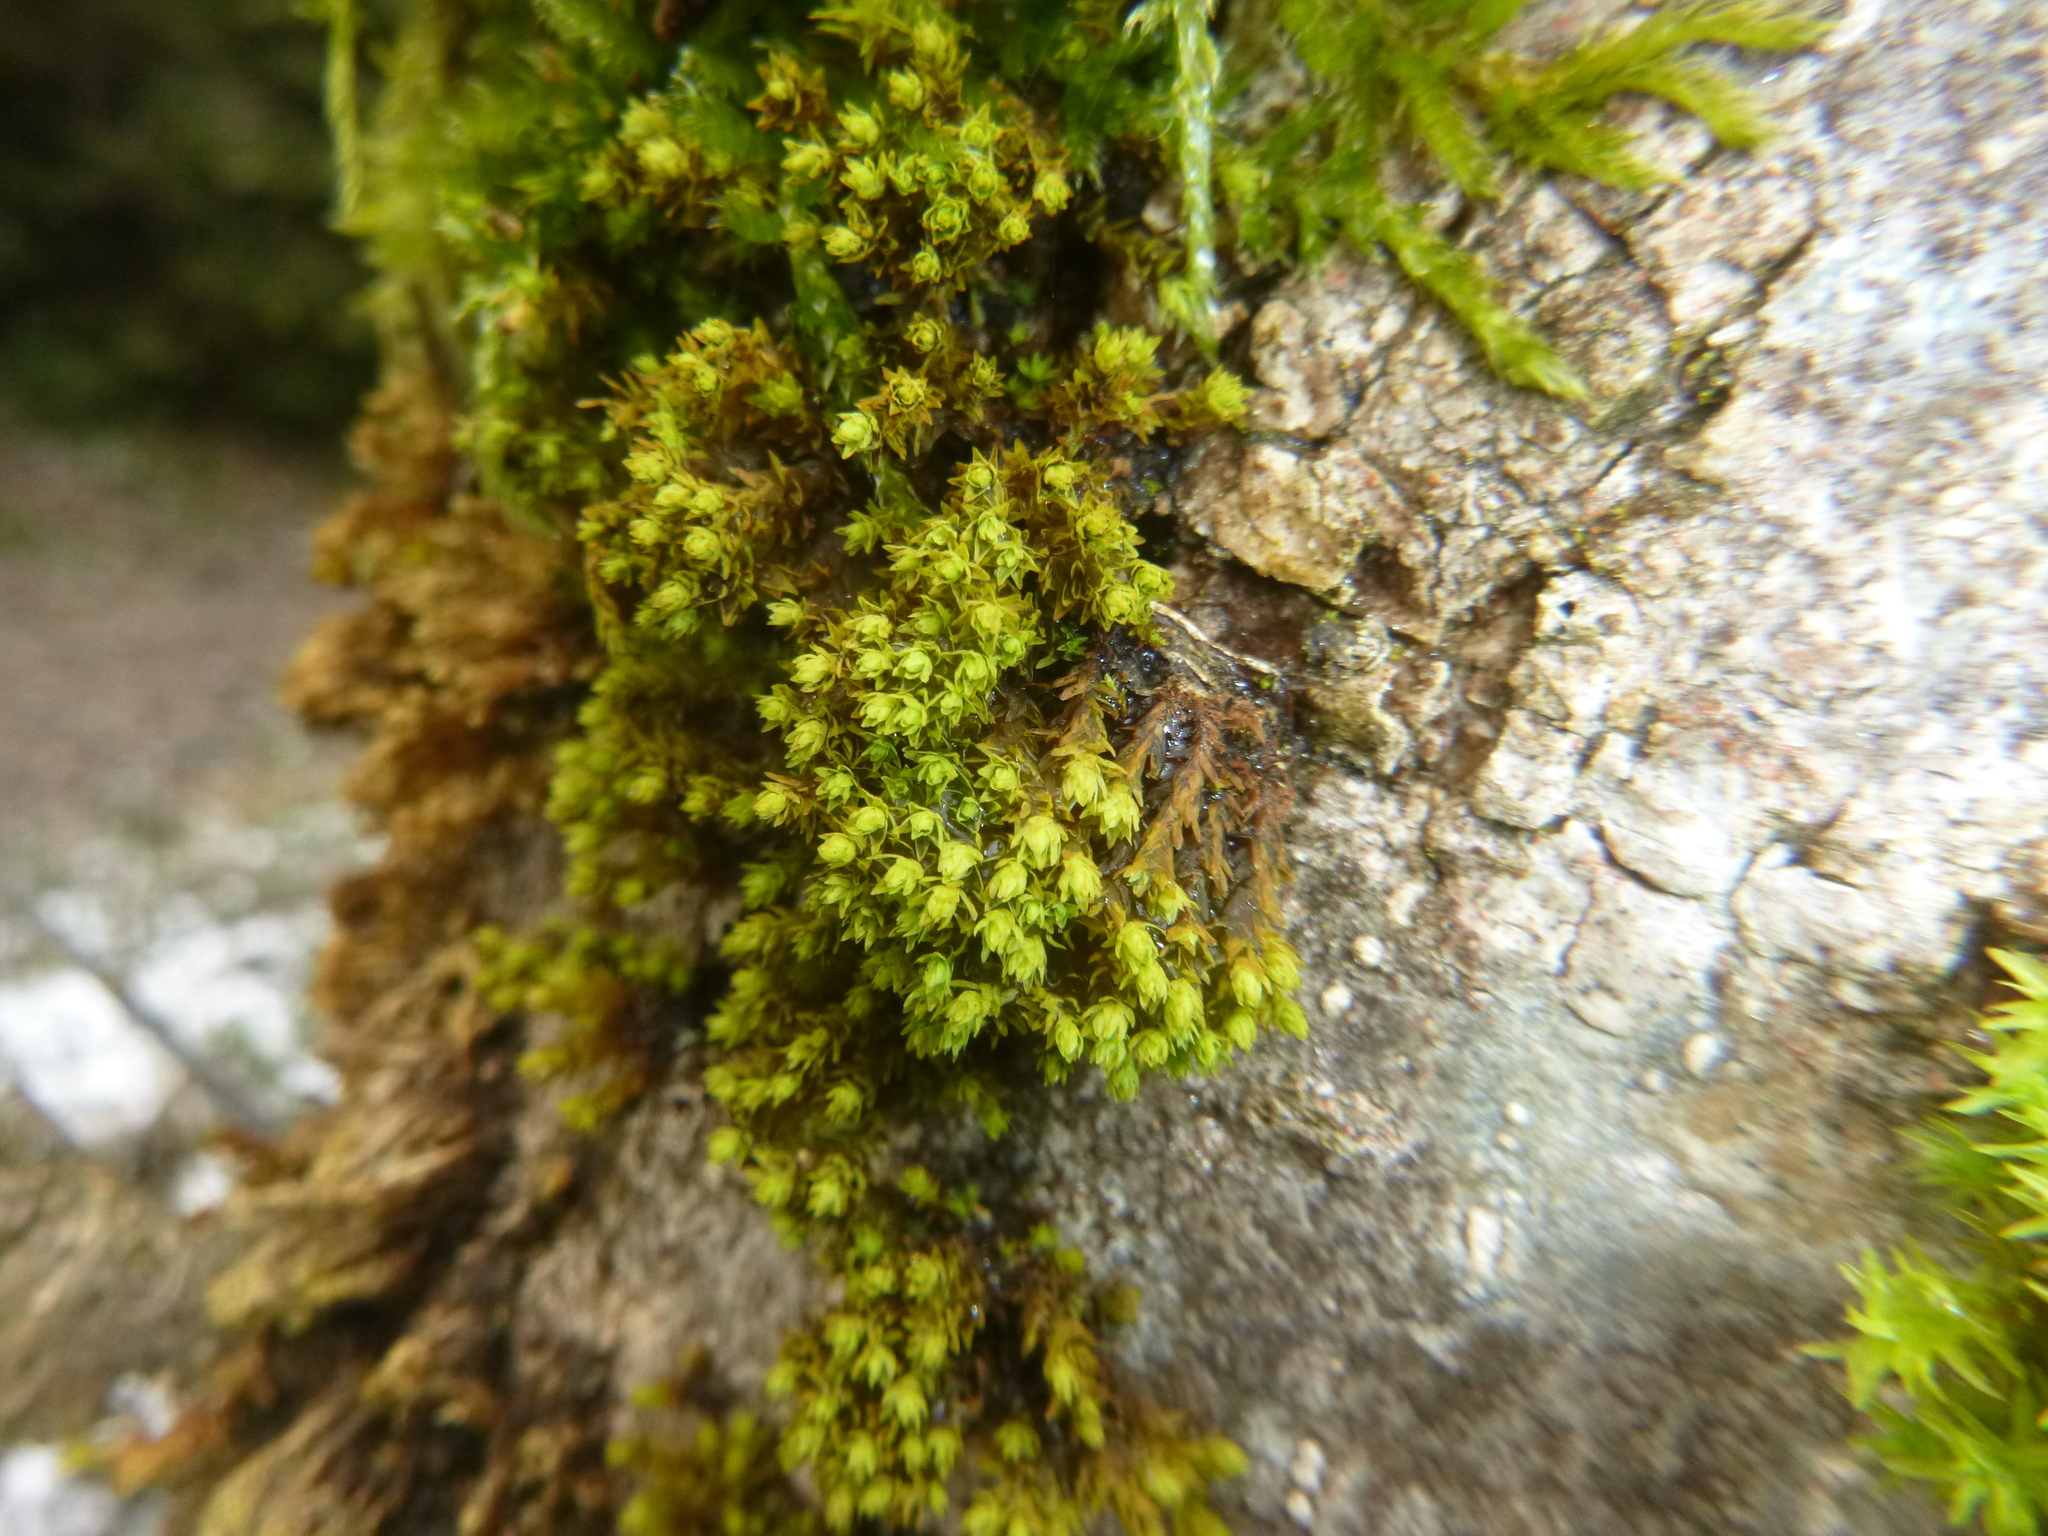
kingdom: Plantae
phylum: Bryophyta
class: Bryopsida
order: Orthotrichales
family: Orthotrichaceae
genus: Nyholmiella
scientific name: Nyholmiella obtusifolia
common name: Blunt-leaved bristle-moss
